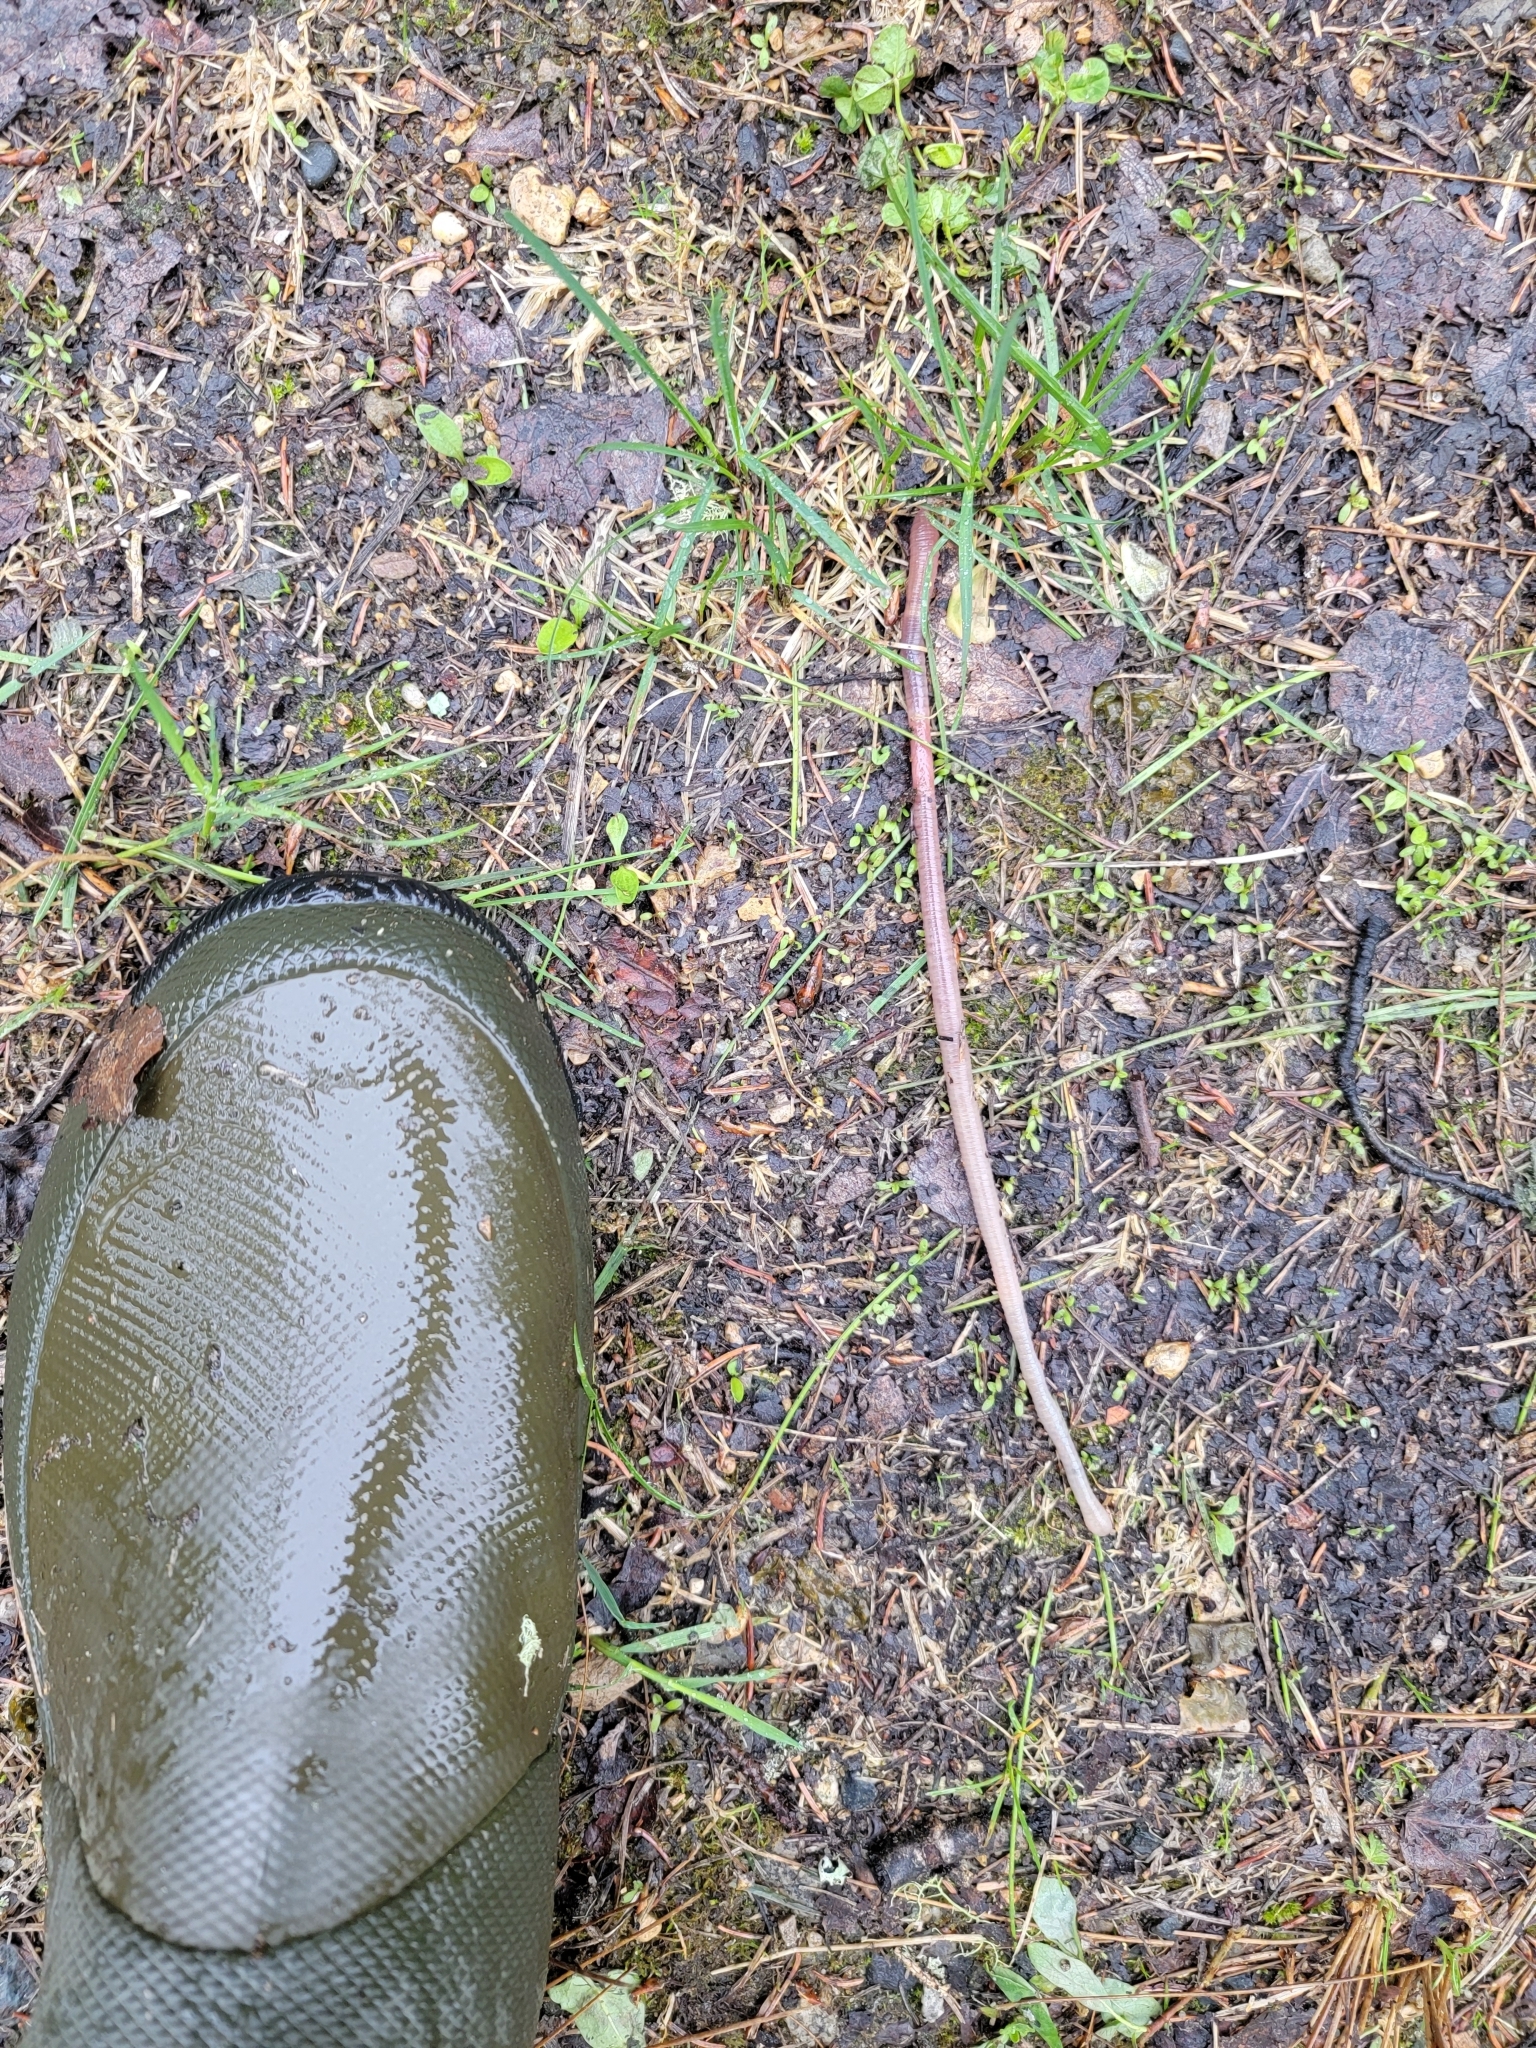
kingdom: Animalia
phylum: Annelida
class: Clitellata
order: Crassiclitellata
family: Lumbricidae
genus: Lumbricus
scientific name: Lumbricus terrestris
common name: Common earthworm
